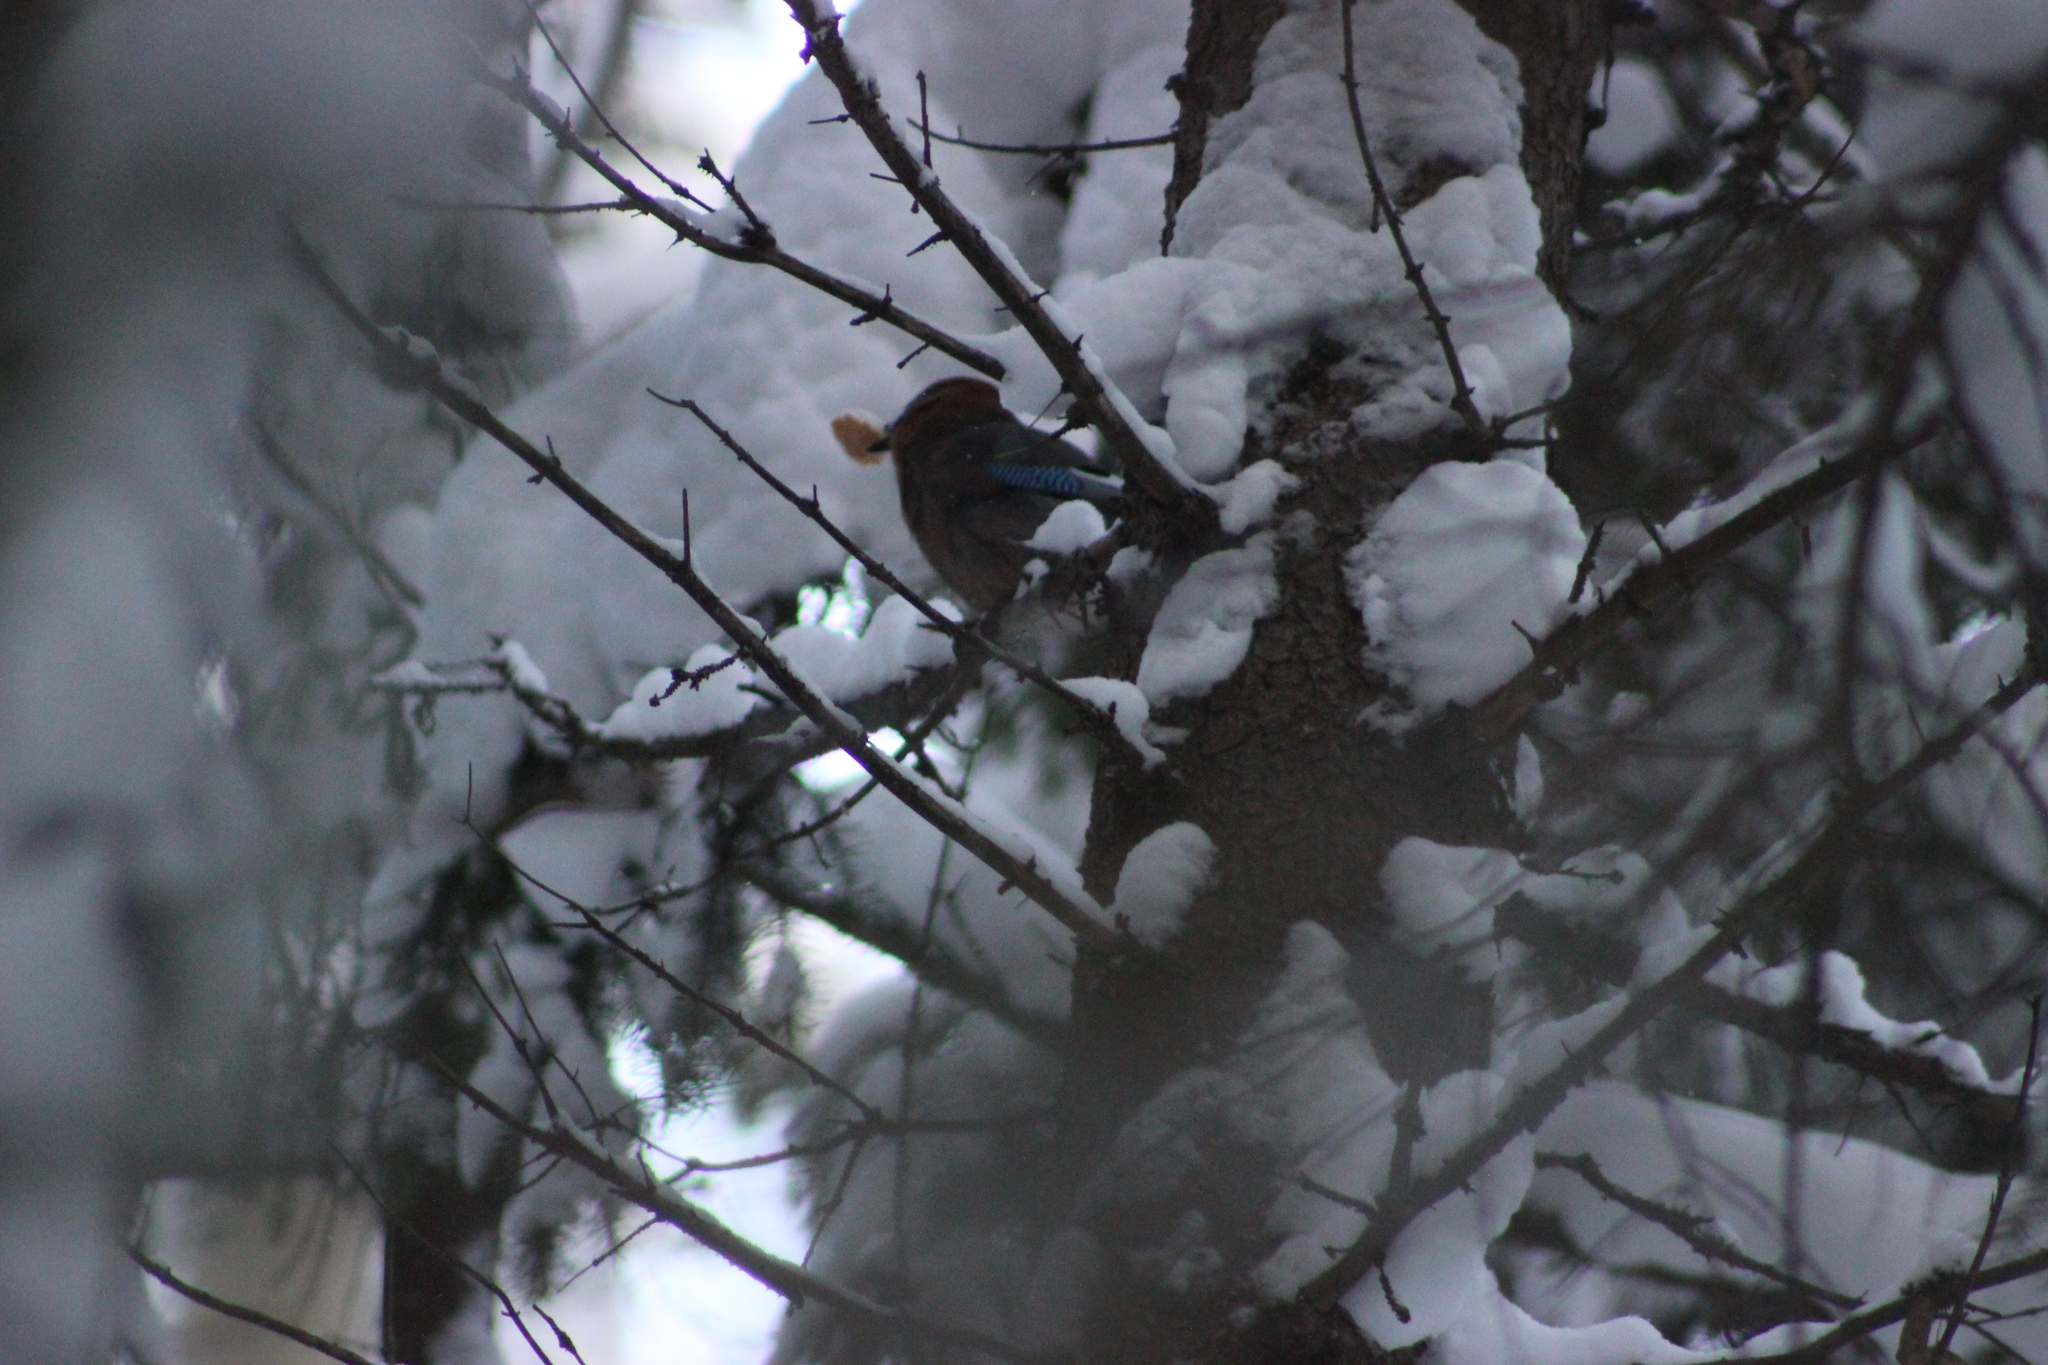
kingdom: Animalia
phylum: Chordata
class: Aves
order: Passeriformes
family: Corvidae
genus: Garrulus
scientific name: Garrulus glandarius
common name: Eurasian jay
